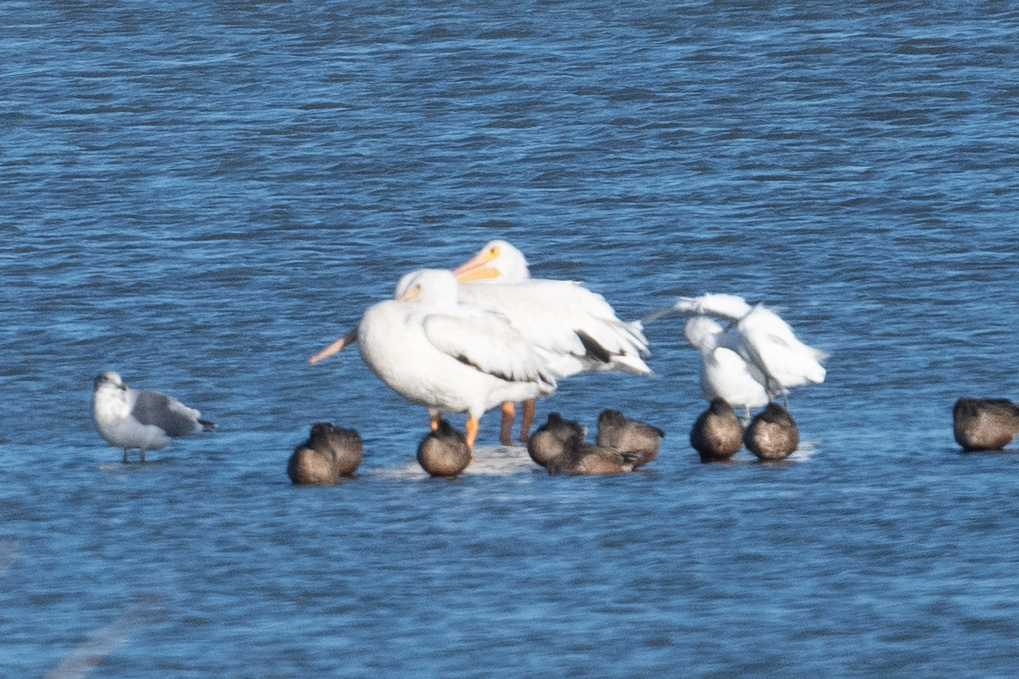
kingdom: Animalia
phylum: Chordata
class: Aves
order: Pelecaniformes
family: Pelecanidae
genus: Pelecanus
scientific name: Pelecanus erythrorhynchos
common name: American white pelican
